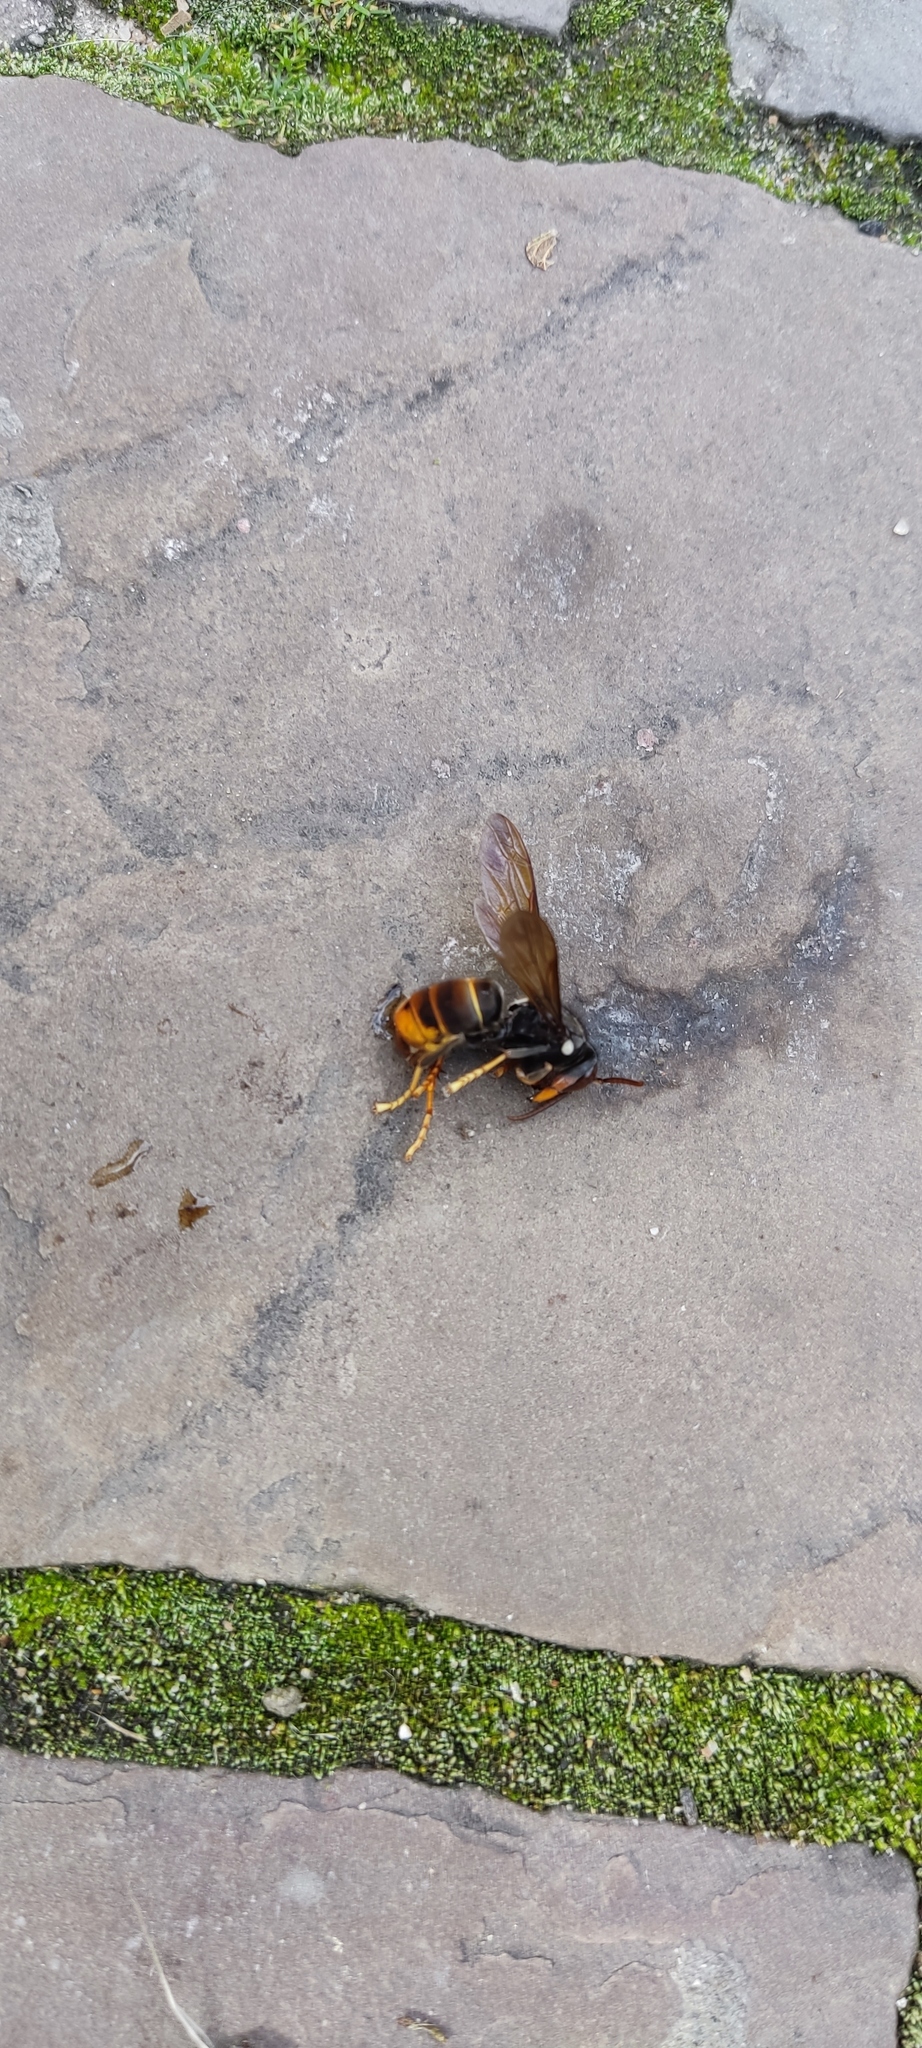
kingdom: Animalia
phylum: Arthropoda
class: Insecta
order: Hymenoptera
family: Vespidae
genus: Vespa
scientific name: Vespa velutina
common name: Asian hornet
